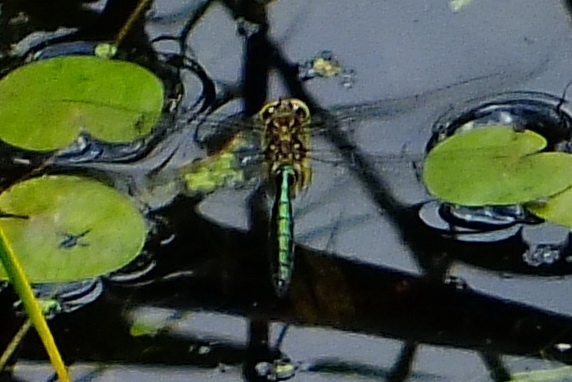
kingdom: Animalia
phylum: Arthropoda
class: Insecta
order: Odonata
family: Corduliidae
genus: Somatochlora
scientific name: Somatochlora metallica
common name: Brilliant emerald
